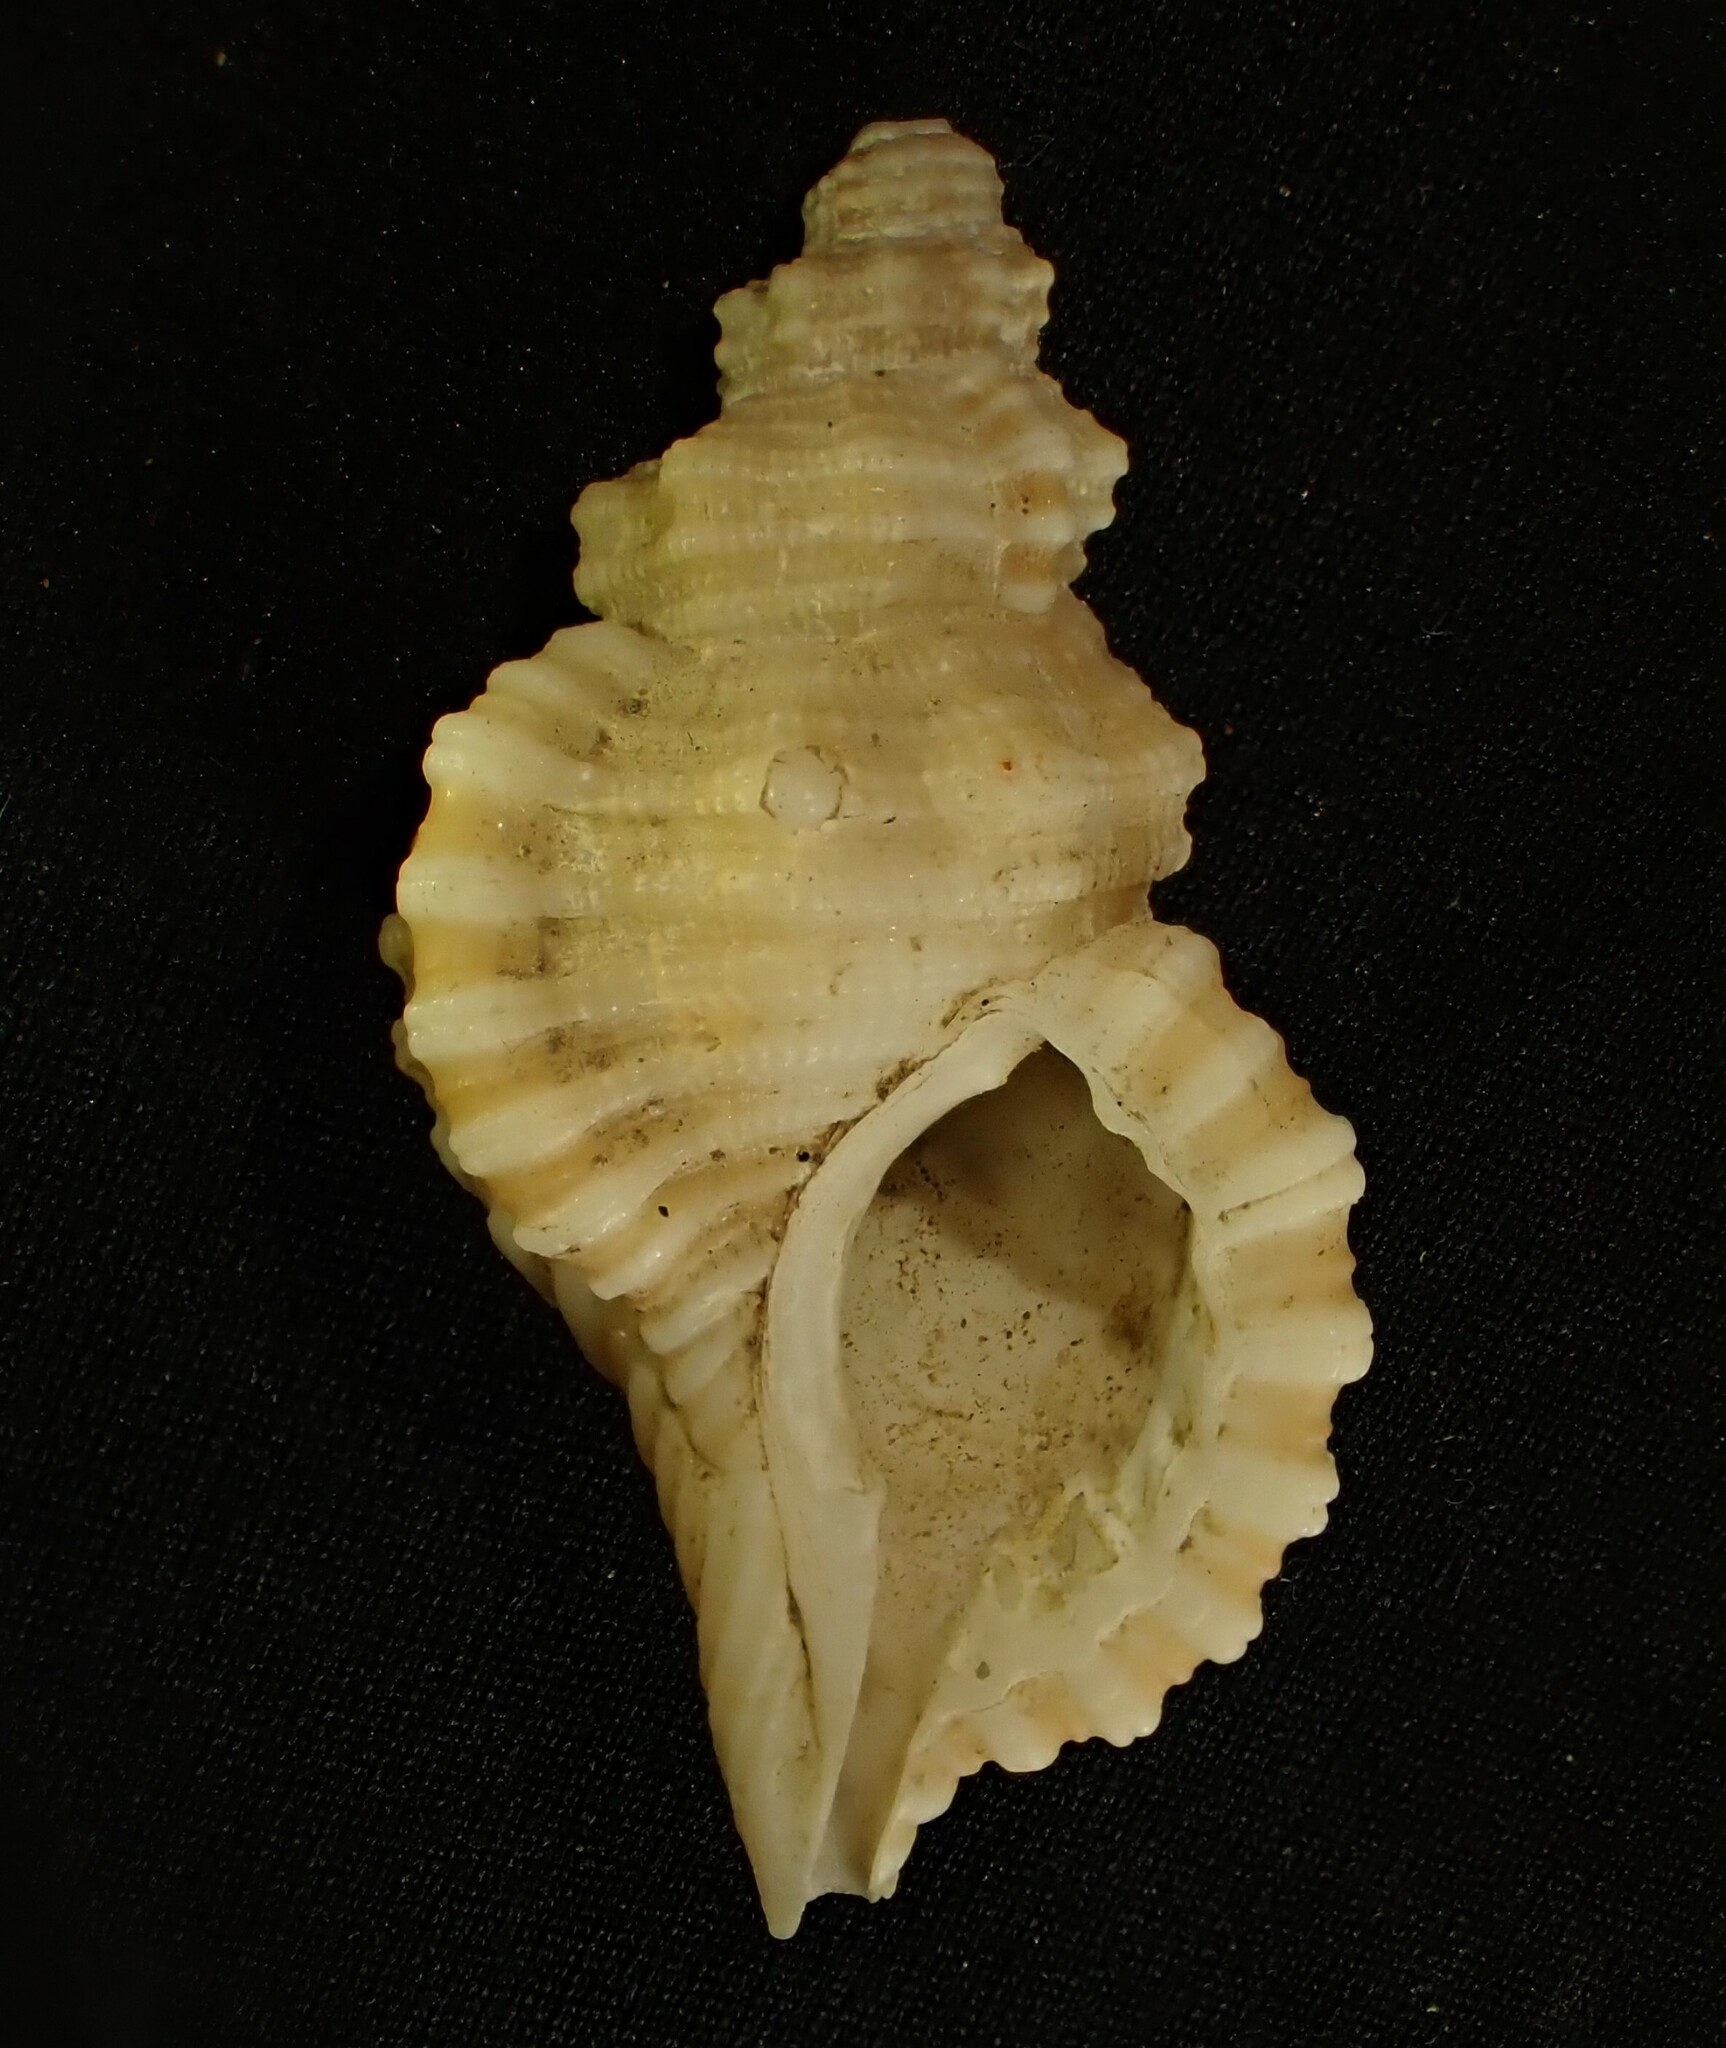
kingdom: Animalia
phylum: Mollusca
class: Gastropoda
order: Littorinimorpha
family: Cymatiidae
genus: Cabestana
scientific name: Cabestana tabulata
